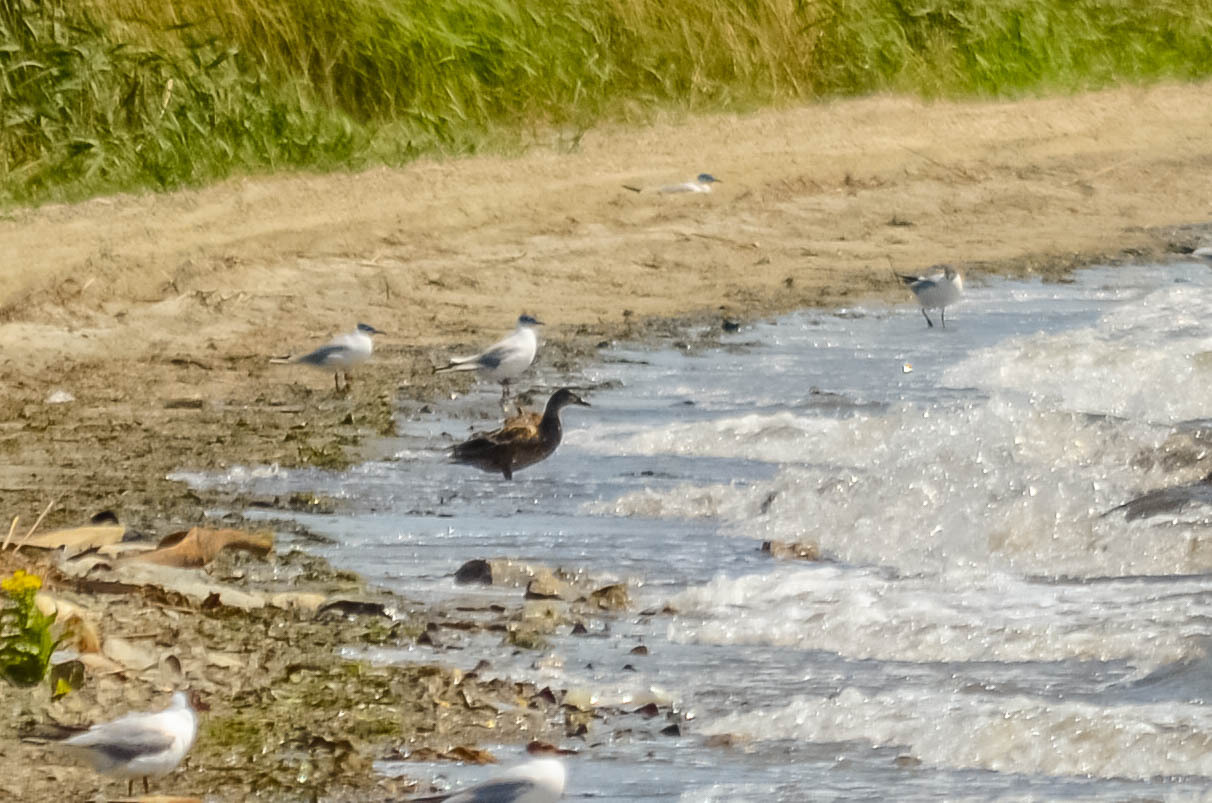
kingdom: Animalia
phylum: Chordata
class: Aves
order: Anseriformes
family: Anatidae
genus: Anas
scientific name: Anas platyrhynchos
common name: Mallard
